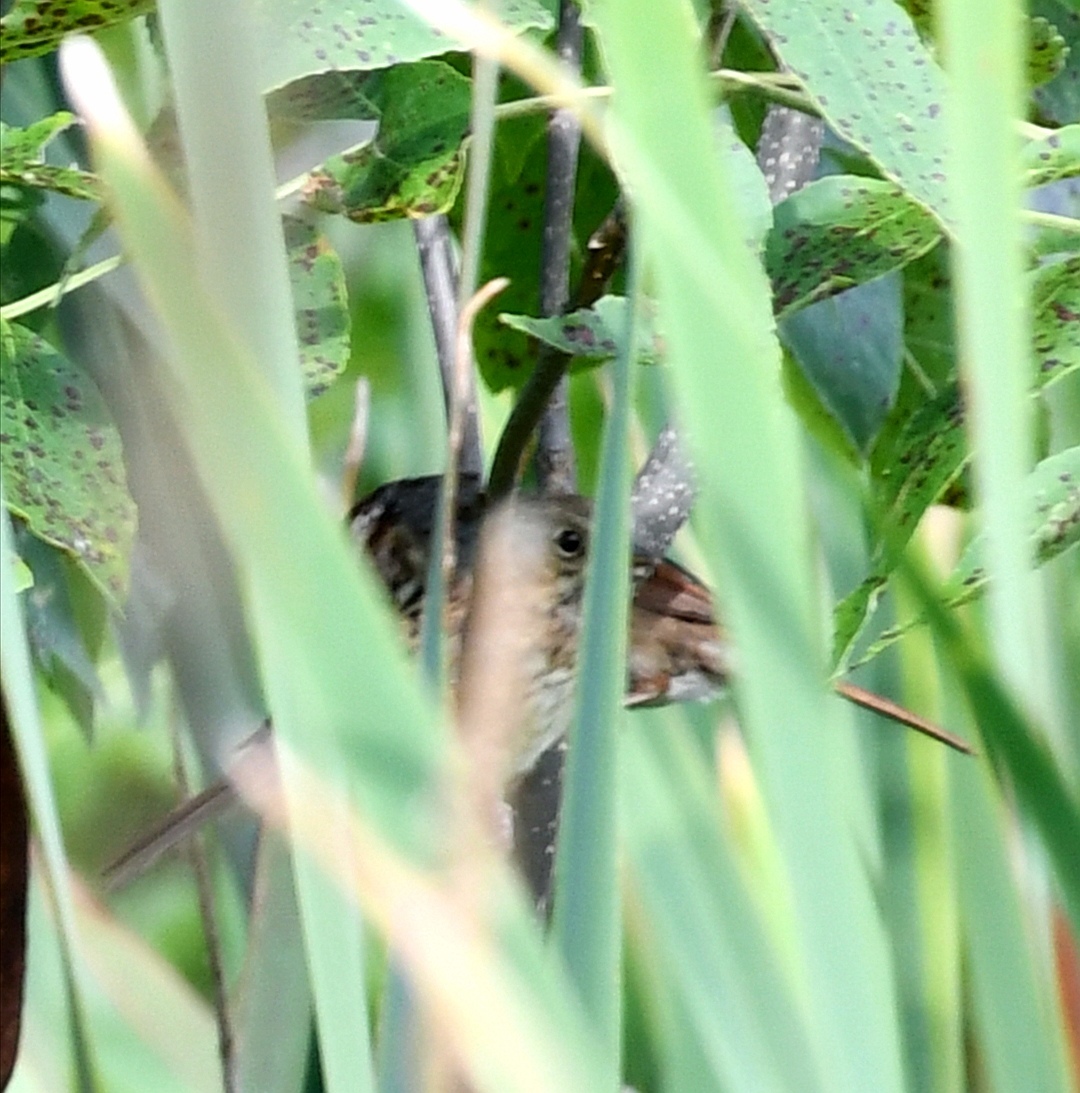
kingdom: Animalia
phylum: Chordata
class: Aves
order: Passeriformes
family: Passerellidae
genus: Melospiza
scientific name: Melospiza melodia
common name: Song sparrow
